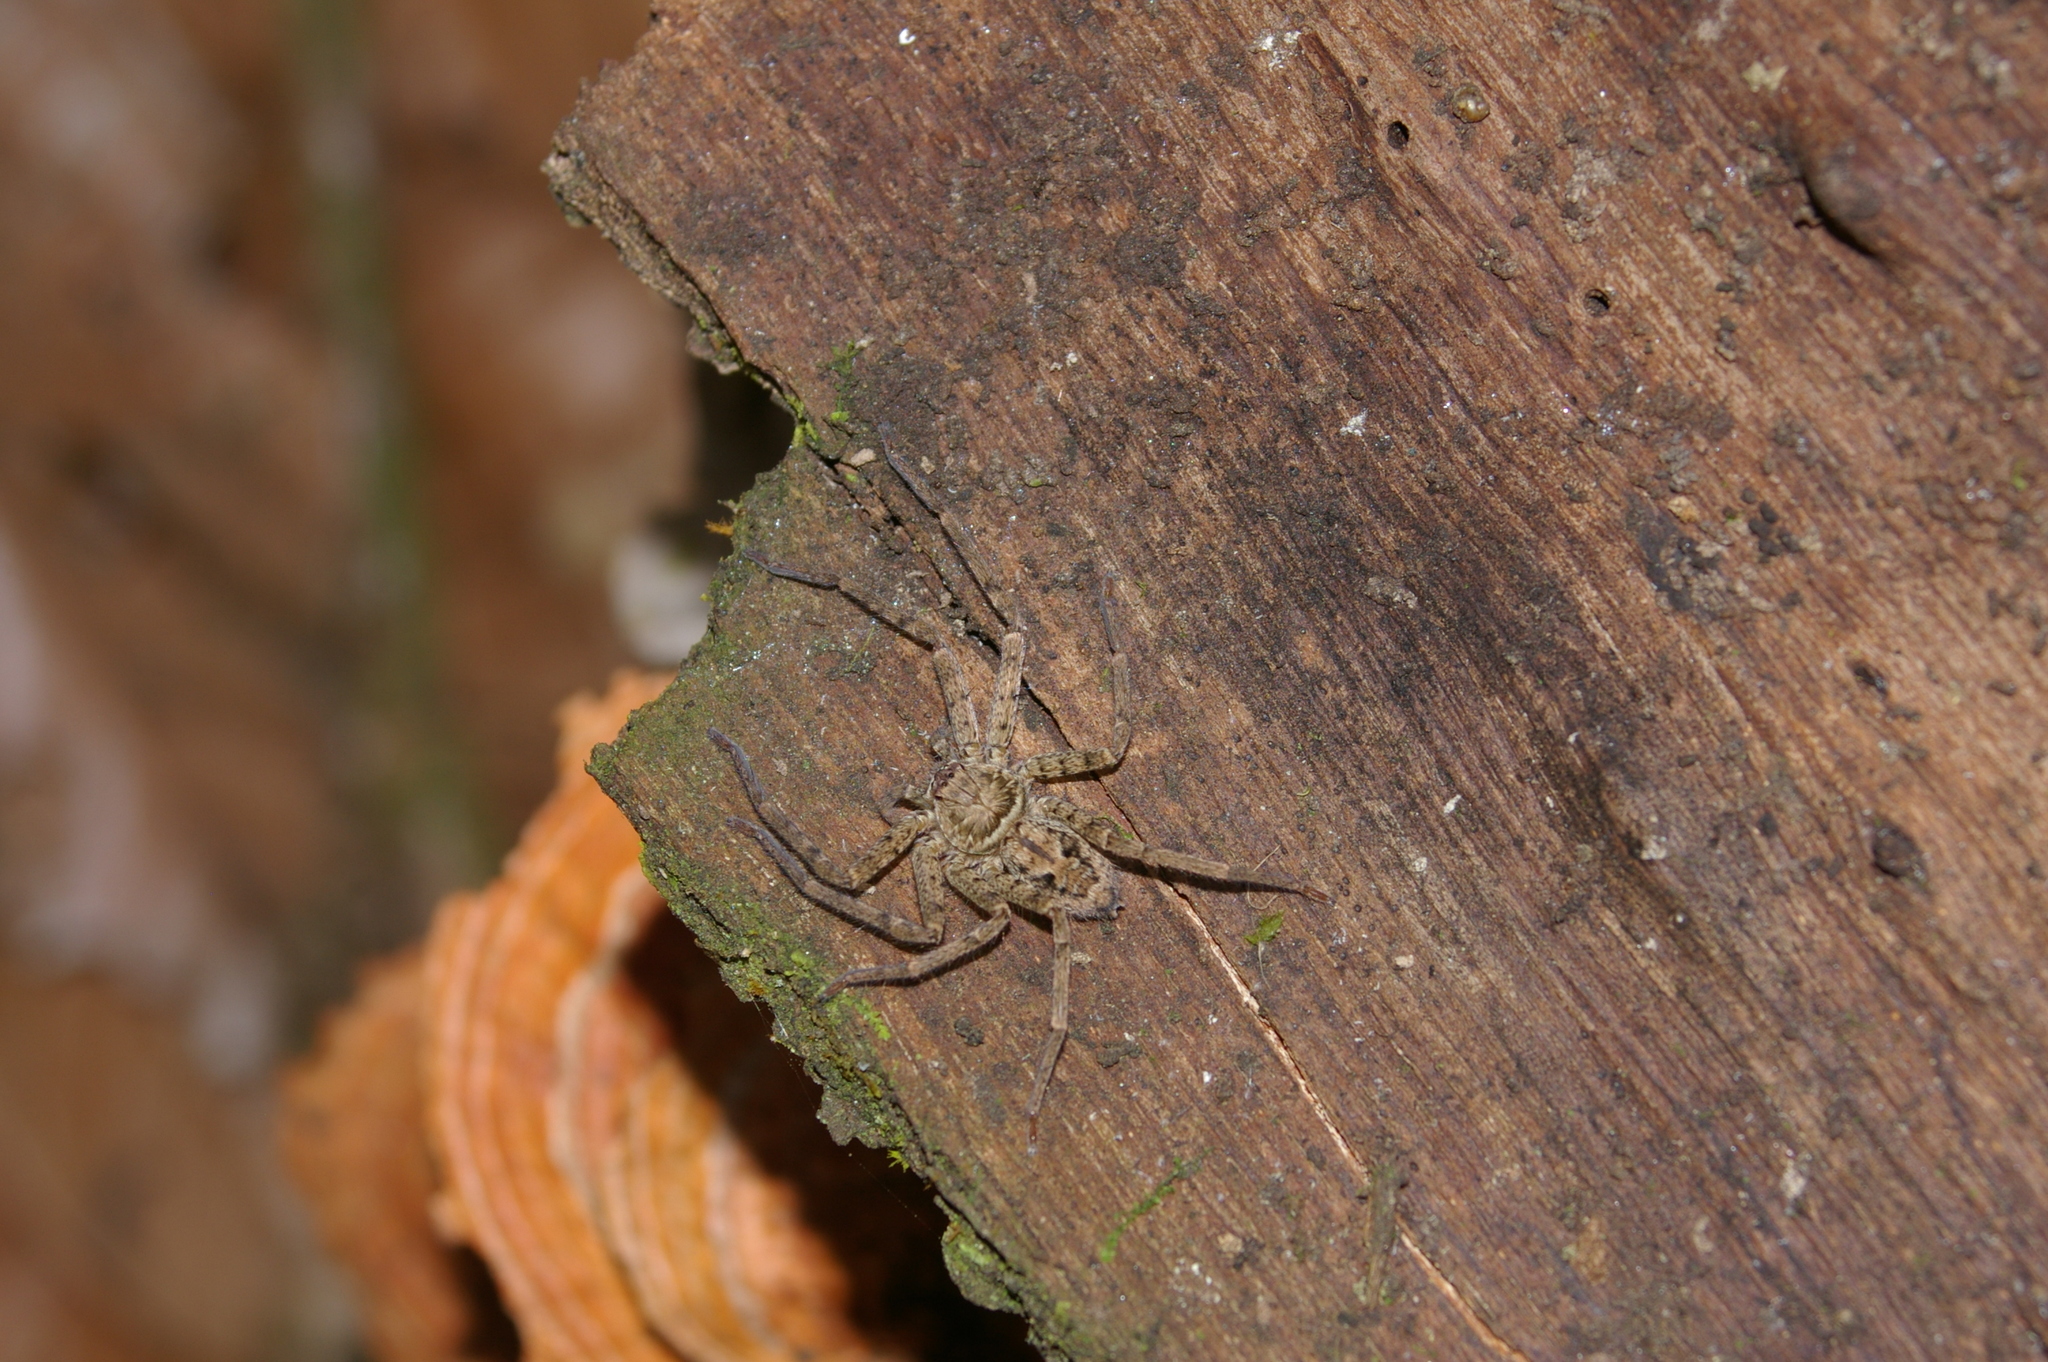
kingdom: Animalia
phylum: Arthropoda
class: Arachnida
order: Araneae
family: Sparassidae
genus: Heteropoda
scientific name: Heteropoda venatoria
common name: Huntsman spider
